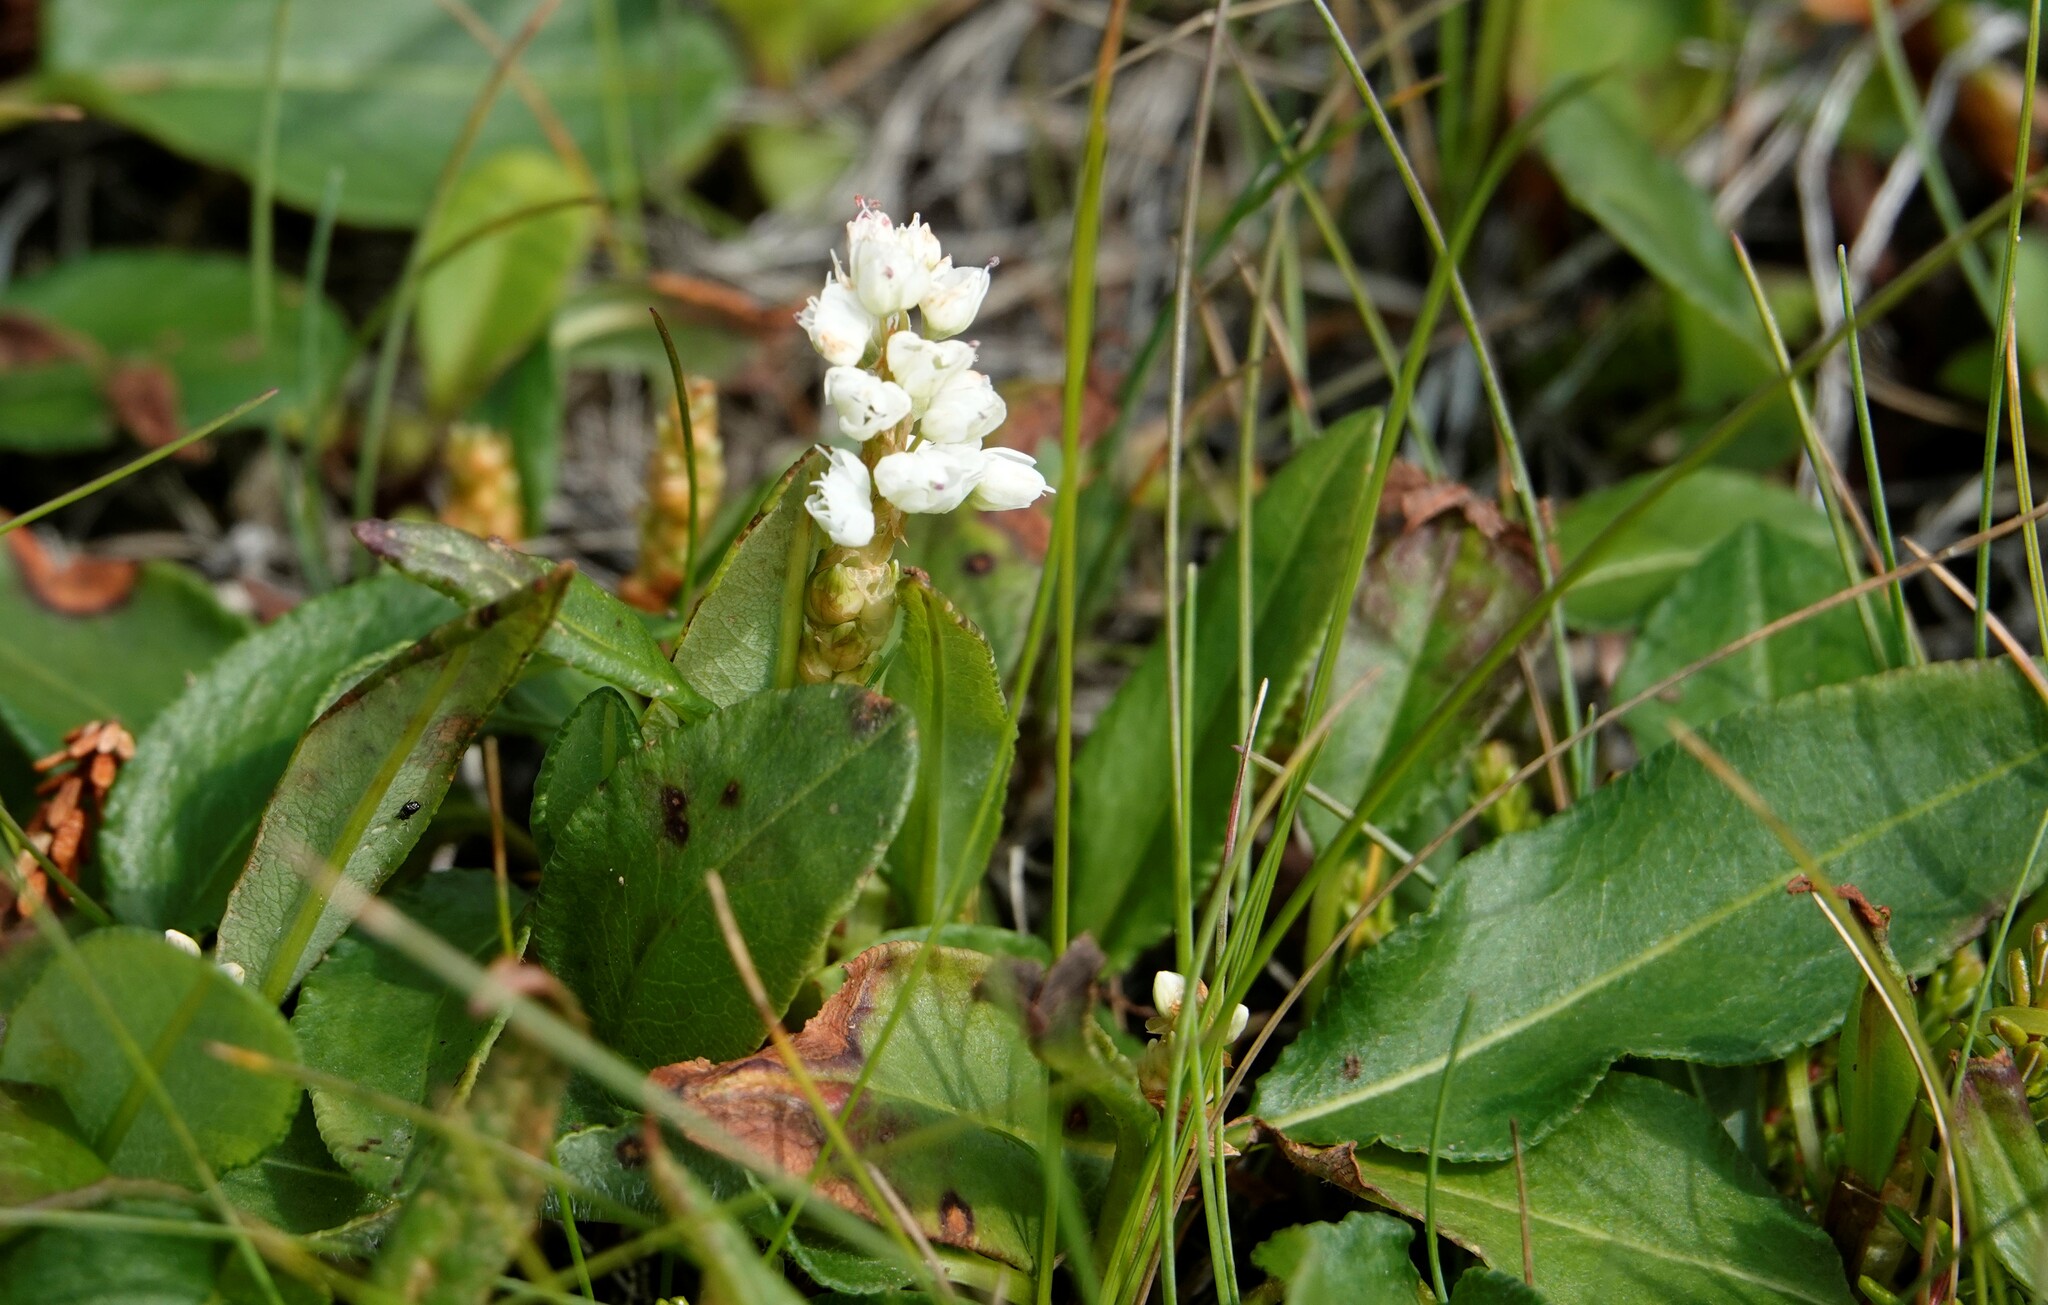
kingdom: Plantae
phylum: Tracheophyta
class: Magnoliopsida
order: Caryophyllales
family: Polygonaceae
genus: Bistorta
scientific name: Bistorta vivipara
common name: Alpine bistort
